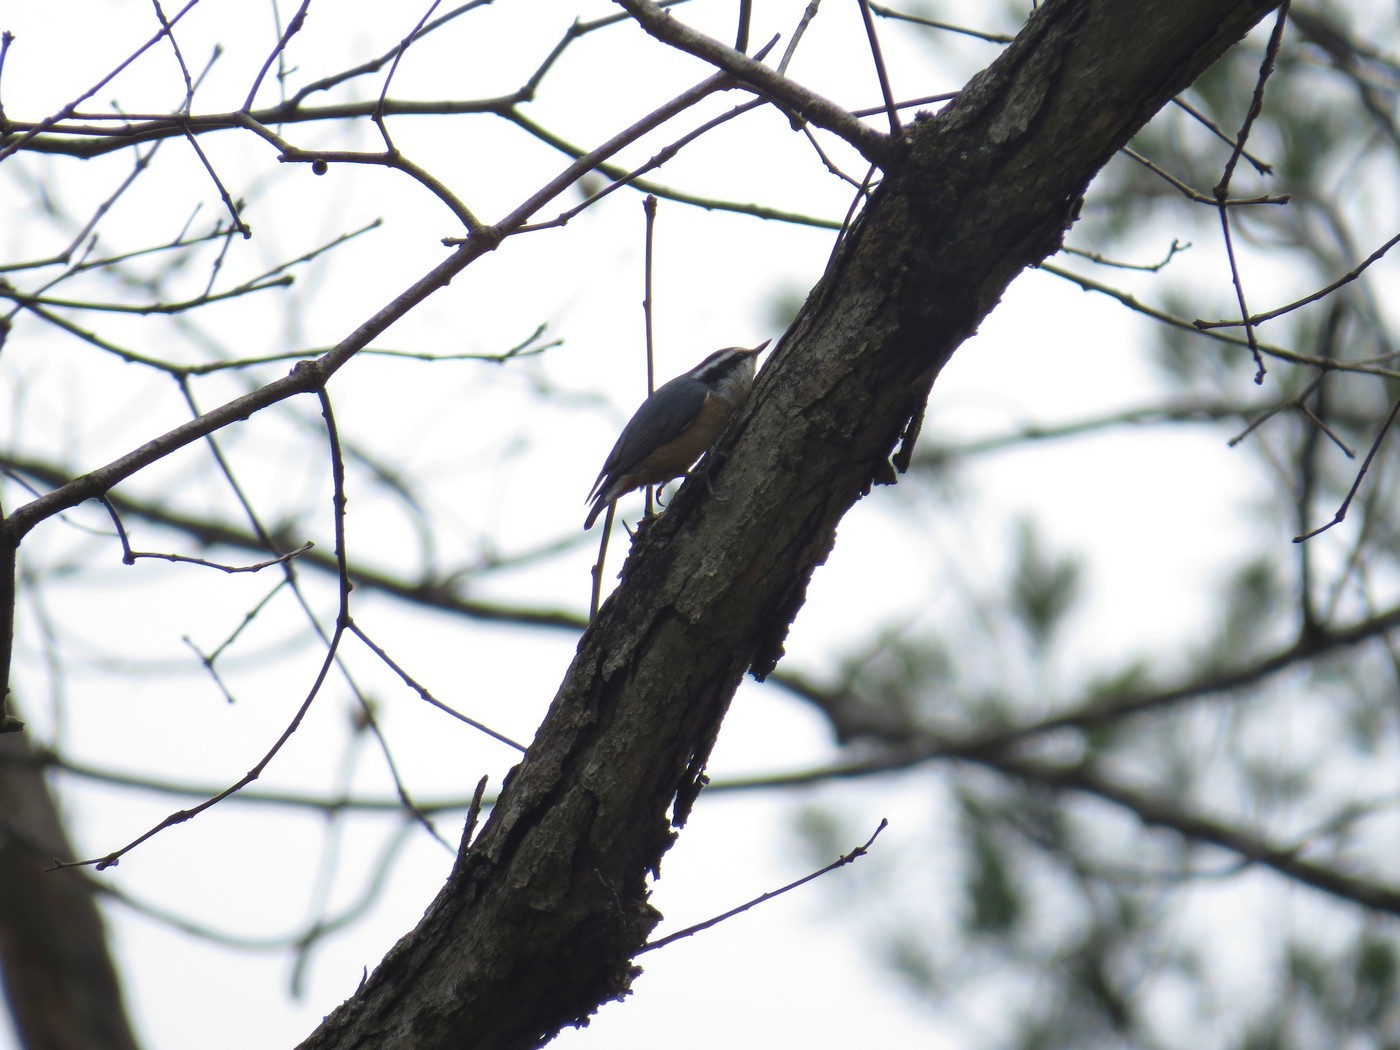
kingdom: Animalia
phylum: Chordata
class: Aves
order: Passeriformes
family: Sittidae
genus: Sitta
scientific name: Sitta canadensis
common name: Red-breasted nuthatch
